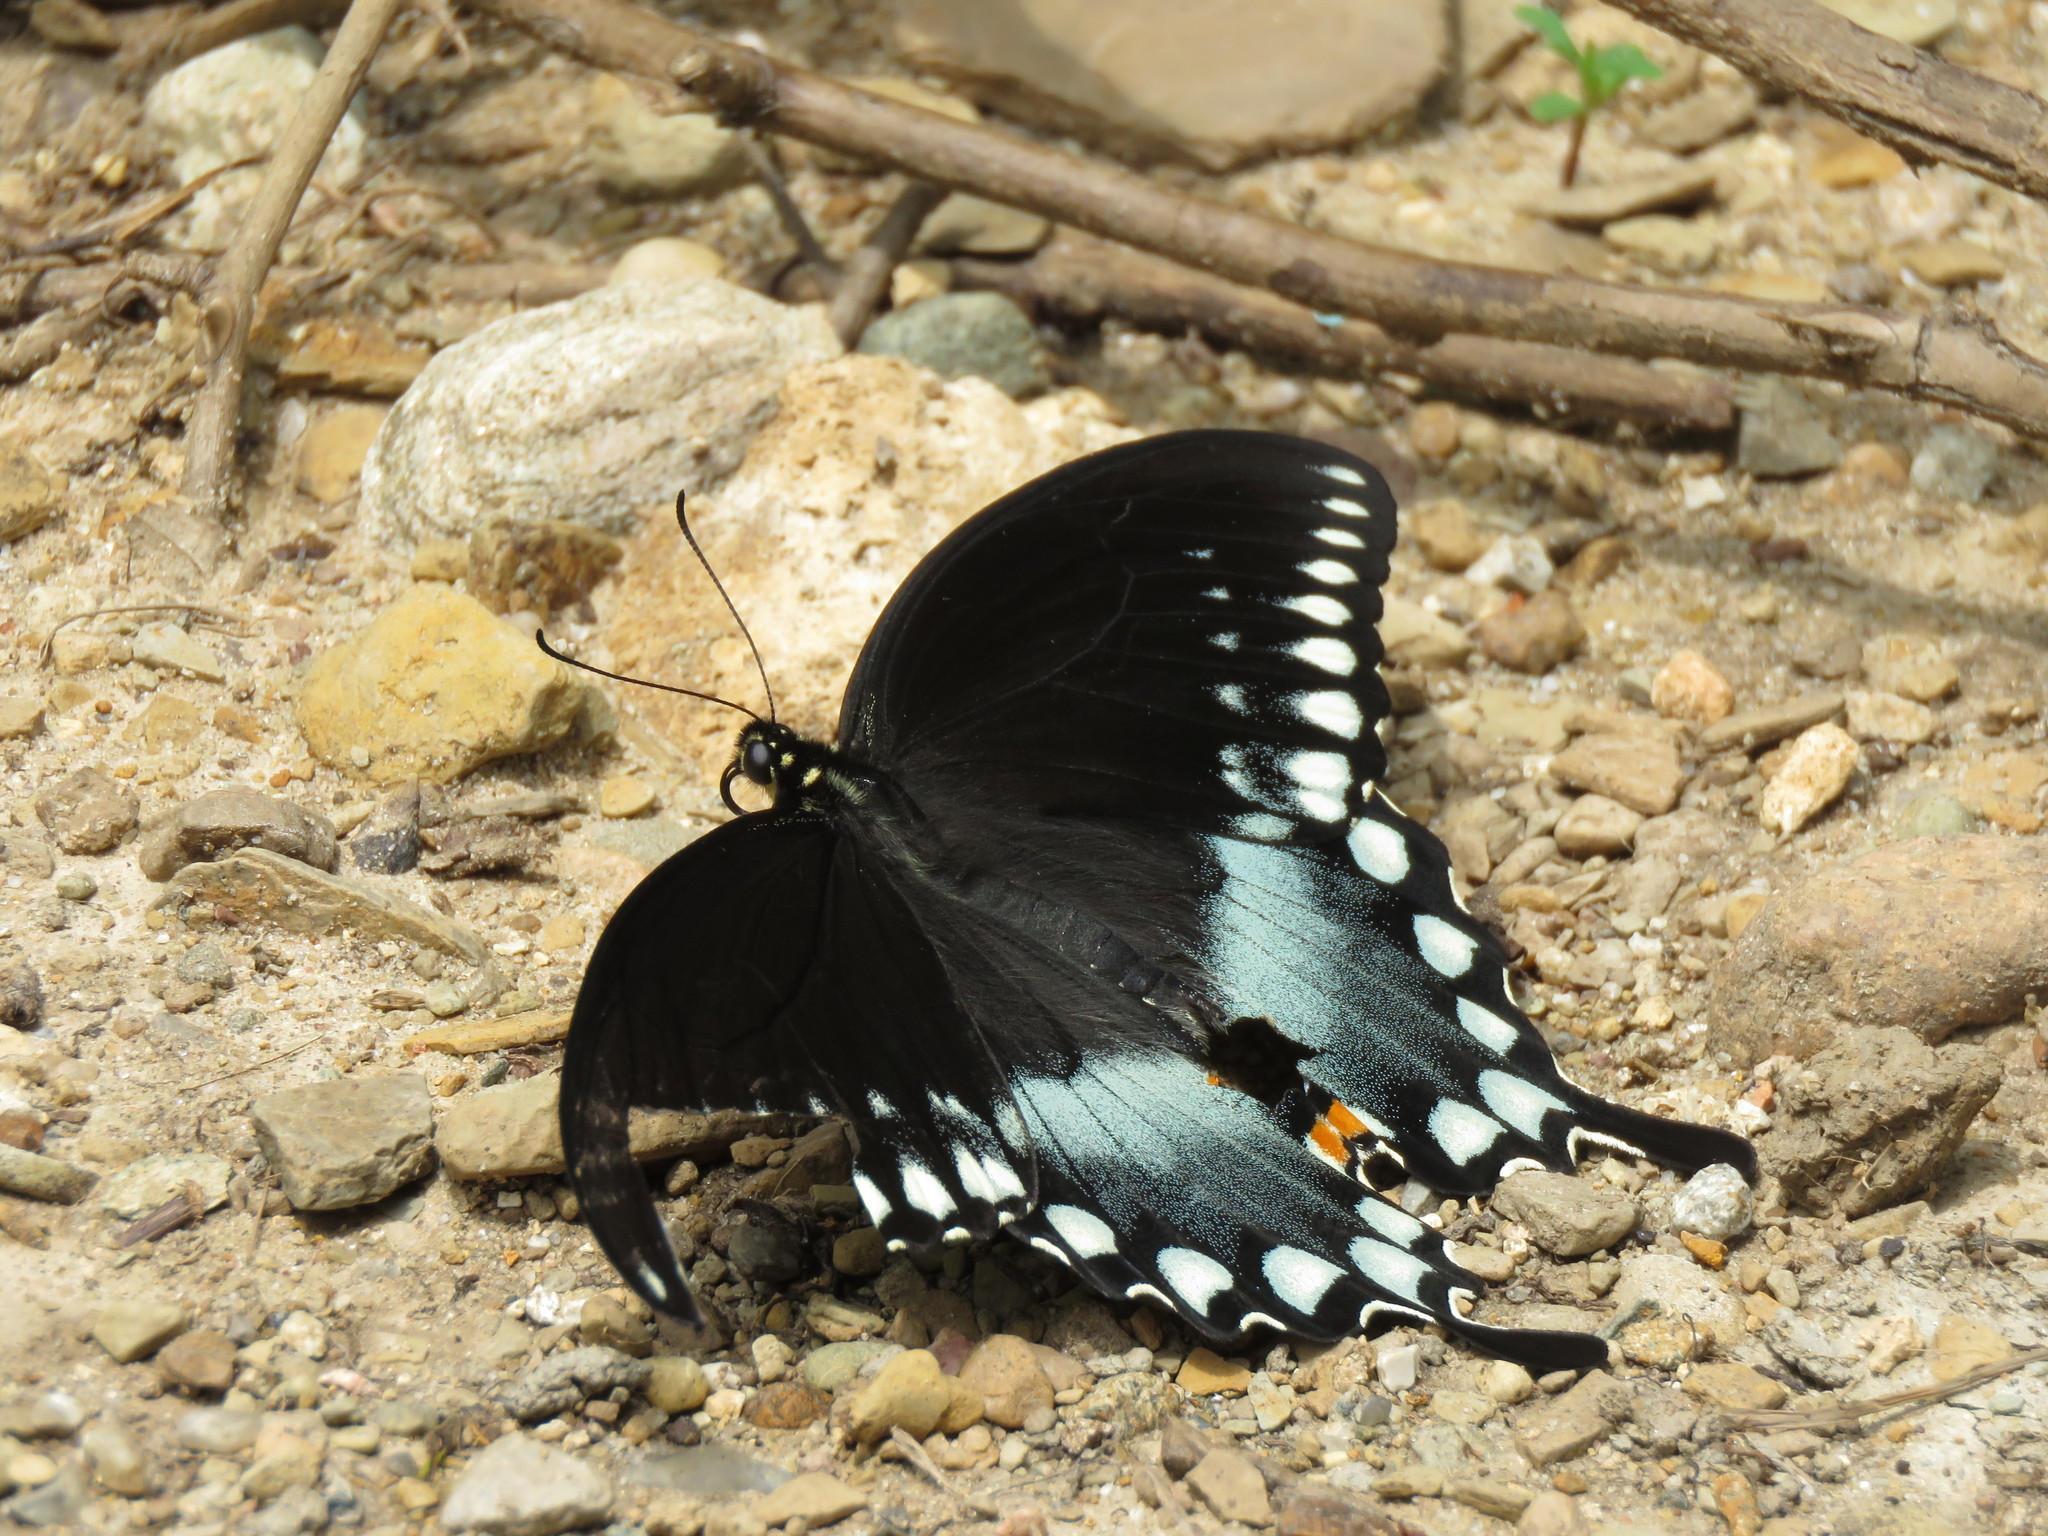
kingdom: Animalia
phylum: Arthropoda
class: Insecta
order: Lepidoptera
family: Papilionidae
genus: Papilio
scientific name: Papilio troilus
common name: Spicebush swallowtail
